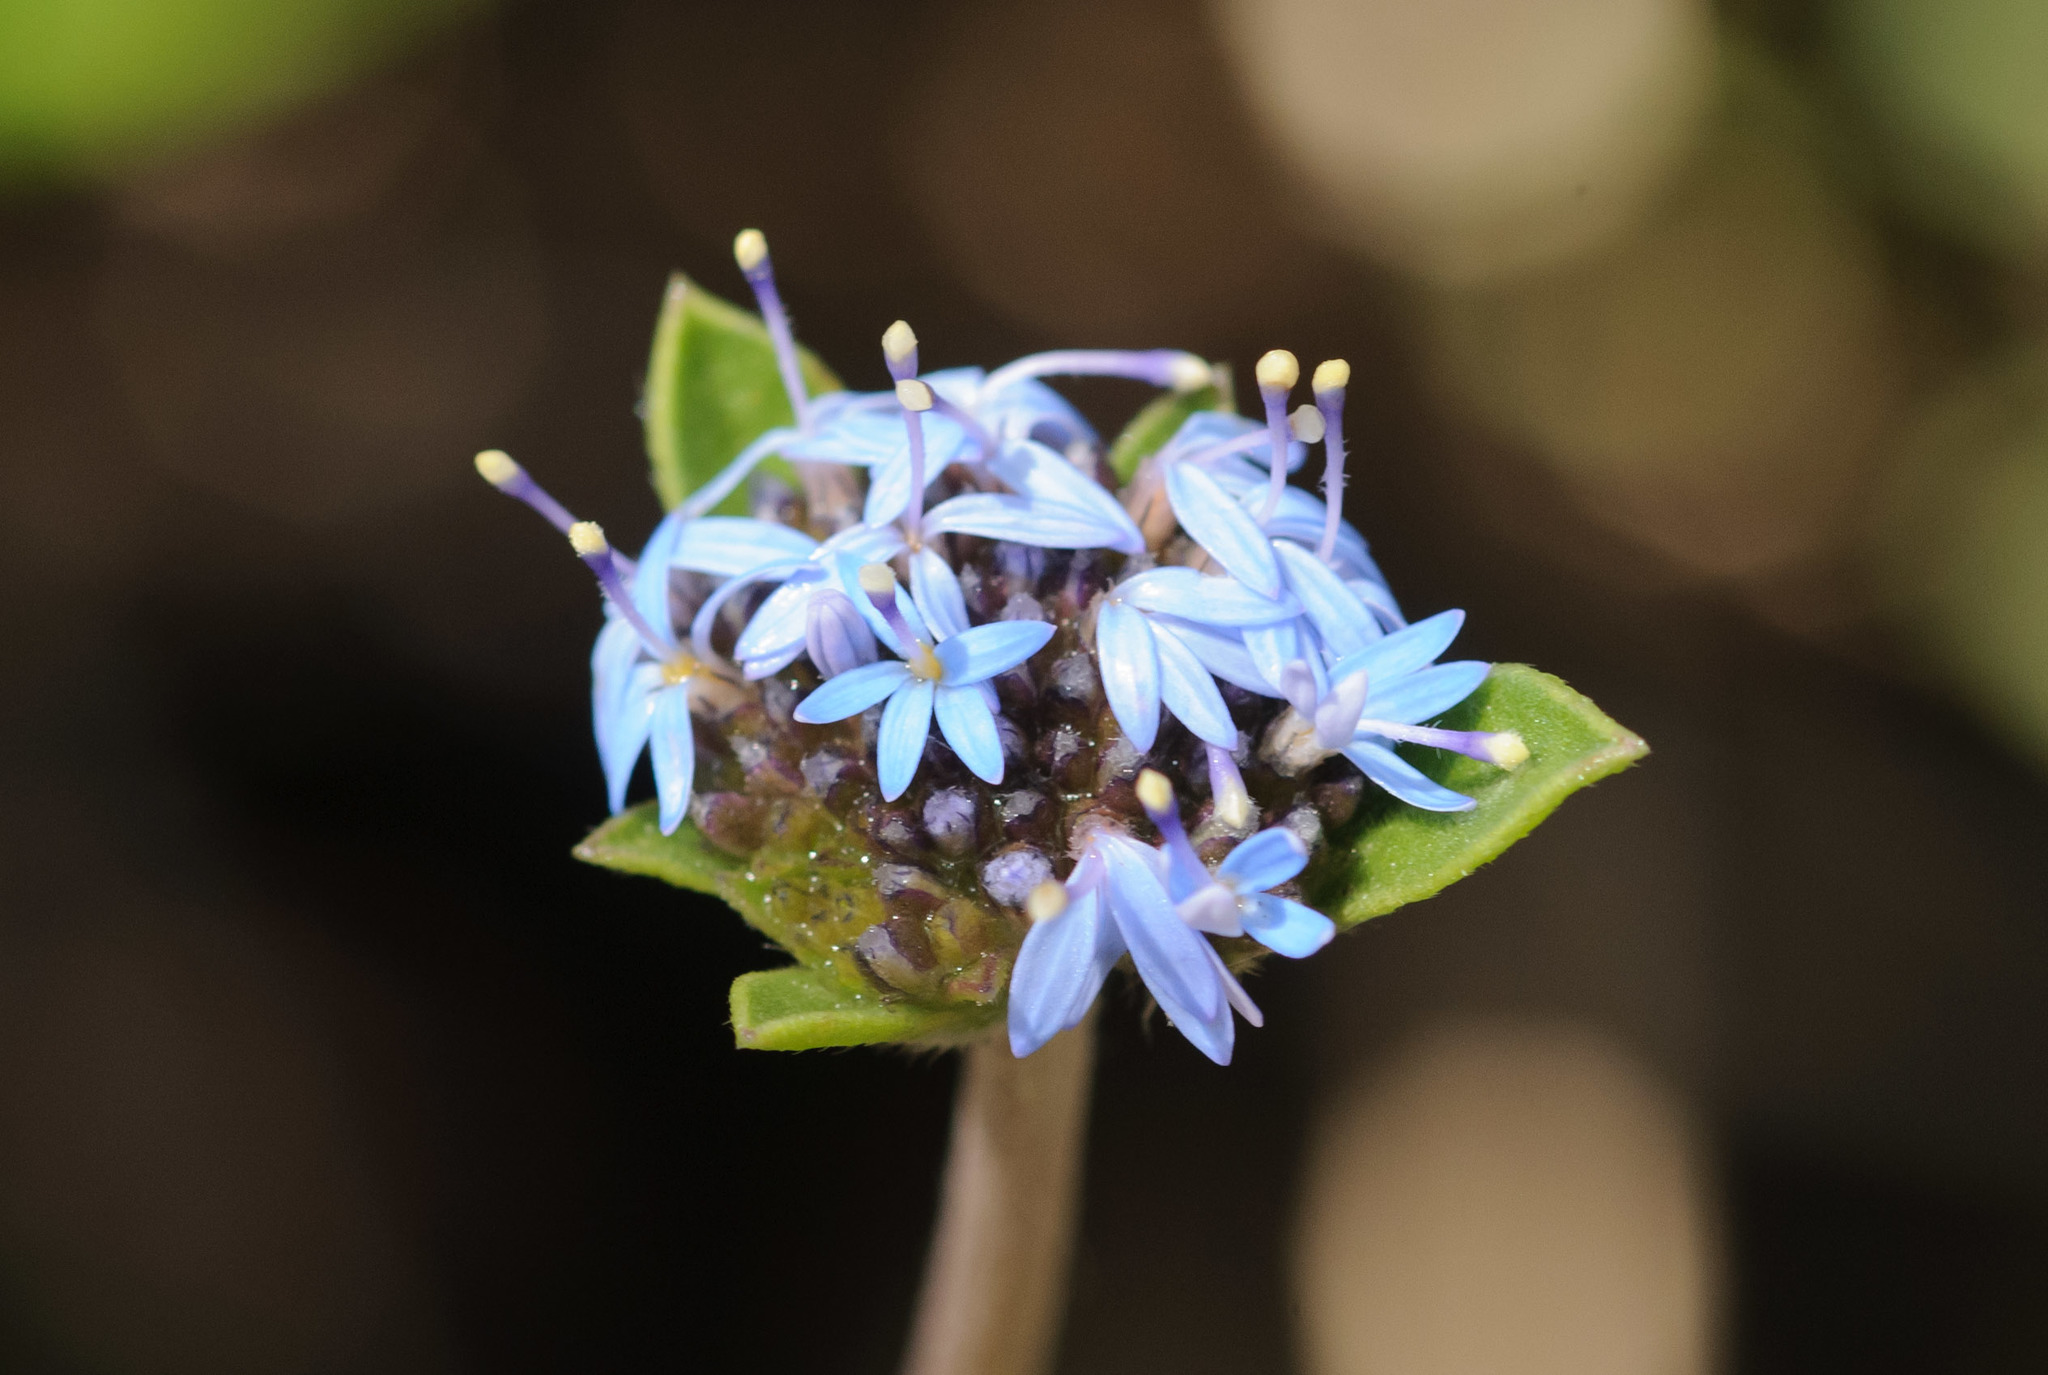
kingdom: Plantae
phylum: Tracheophyta
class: Magnoliopsida
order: Asterales
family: Goodeniaceae
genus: Brunonia
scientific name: Brunonia australis
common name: Blue pincushion
